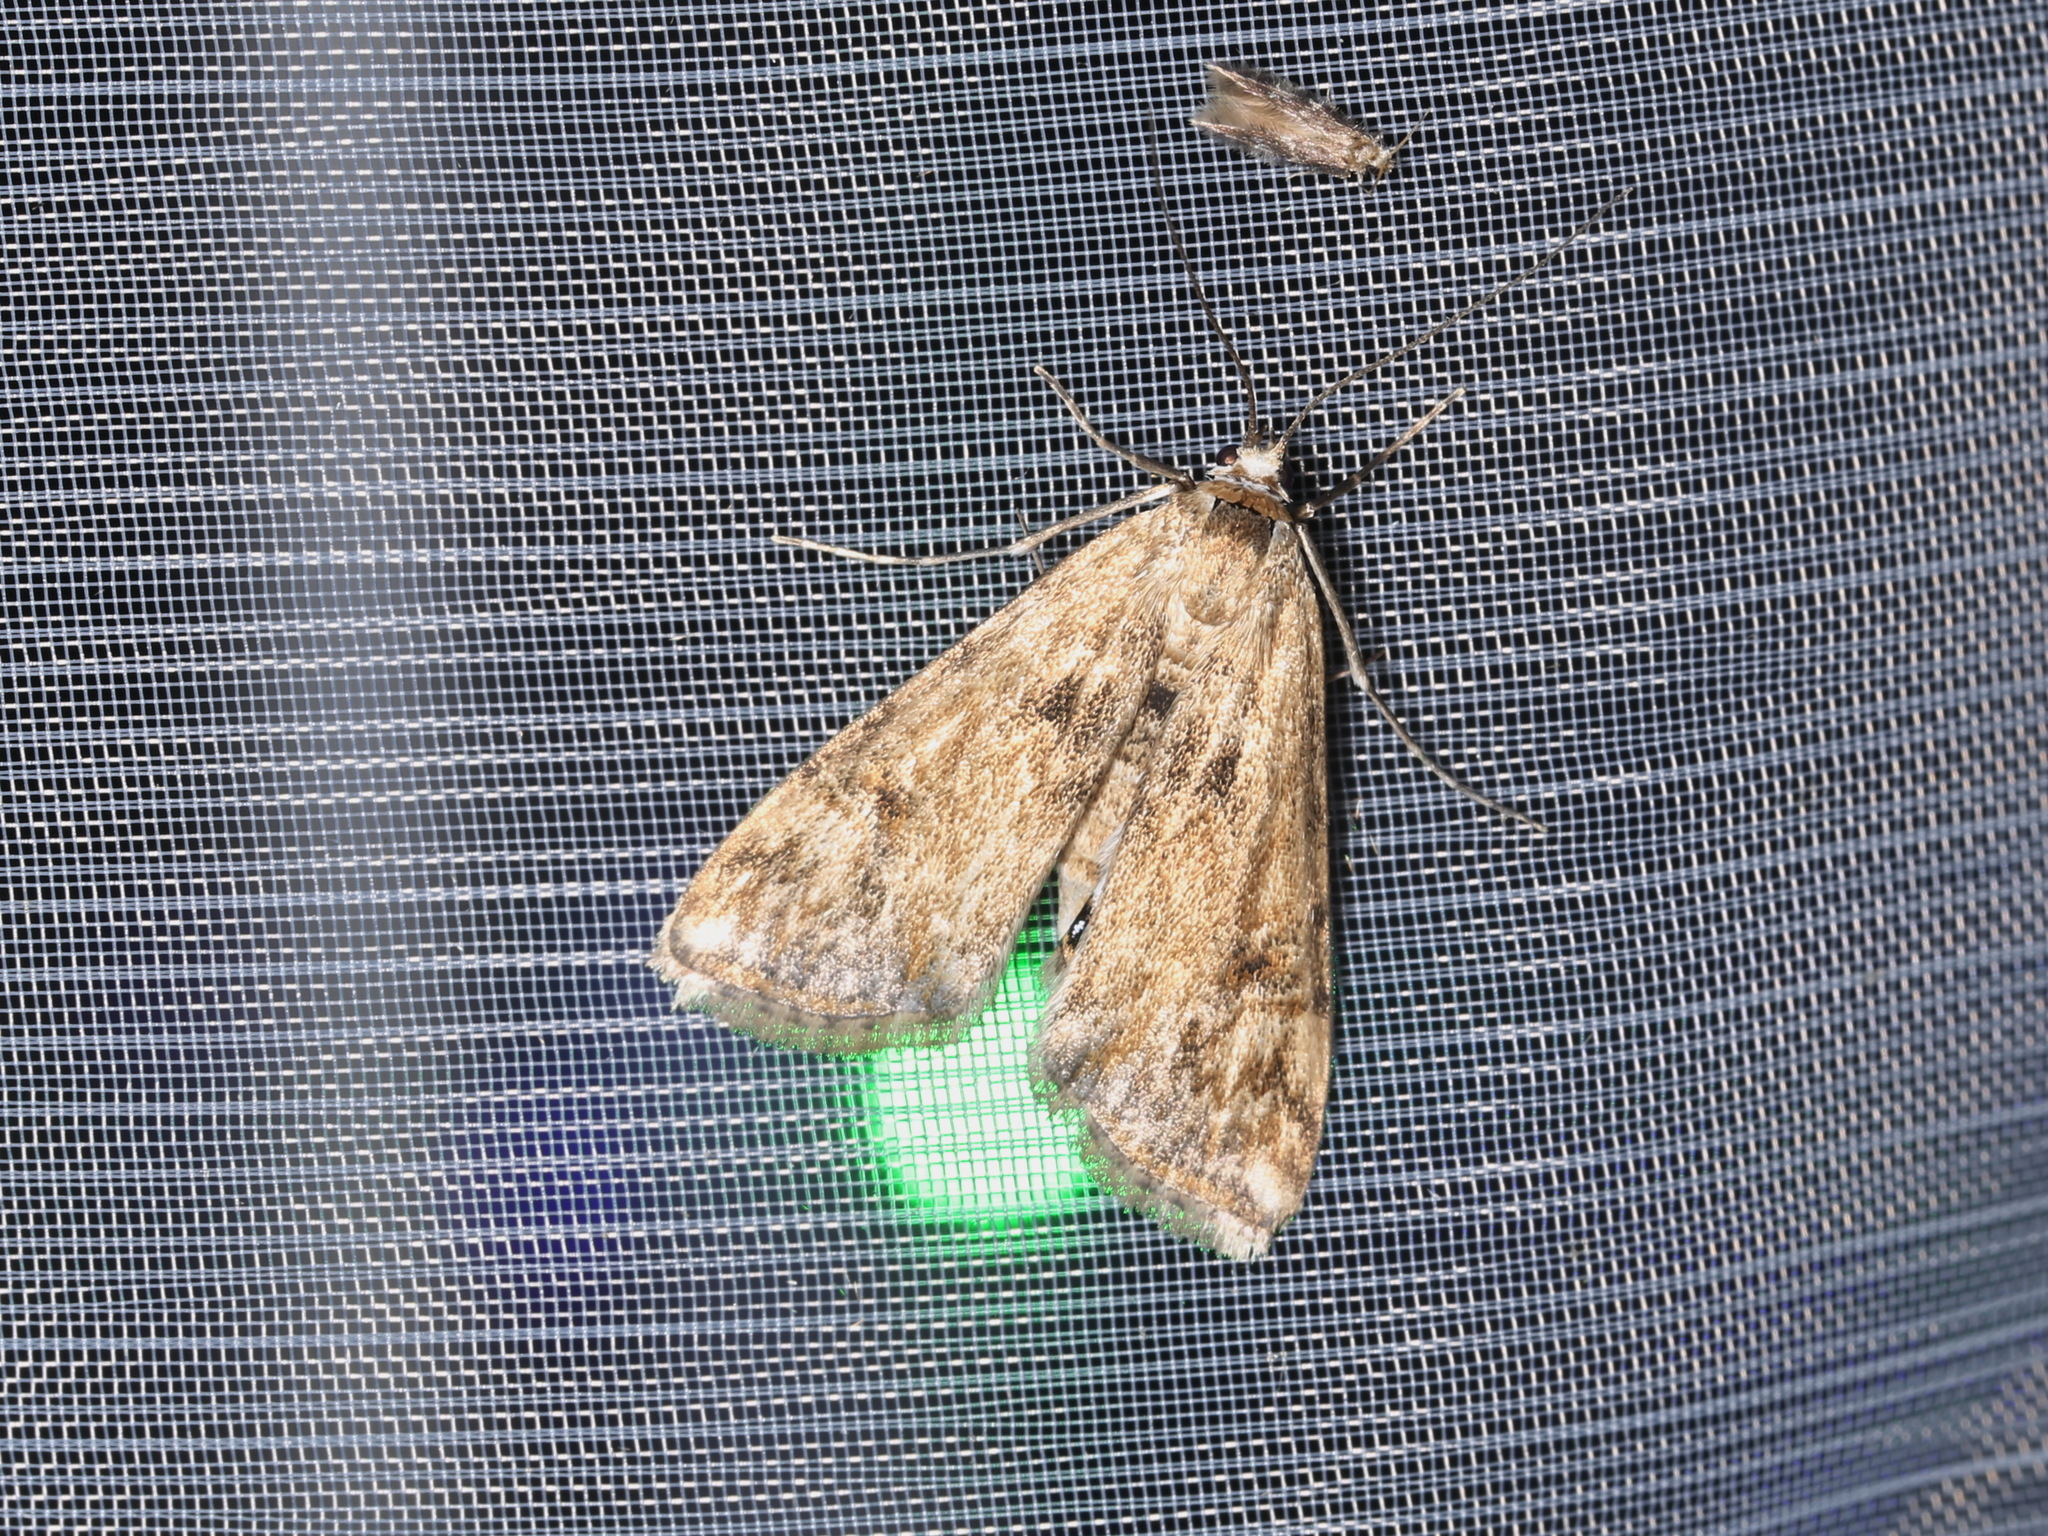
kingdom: Animalia
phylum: Arthropoda
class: Insecta
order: Lepidoptera
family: Crambidae
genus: Cataclysta
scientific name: Cataclysta lemnata
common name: Small china-mark
